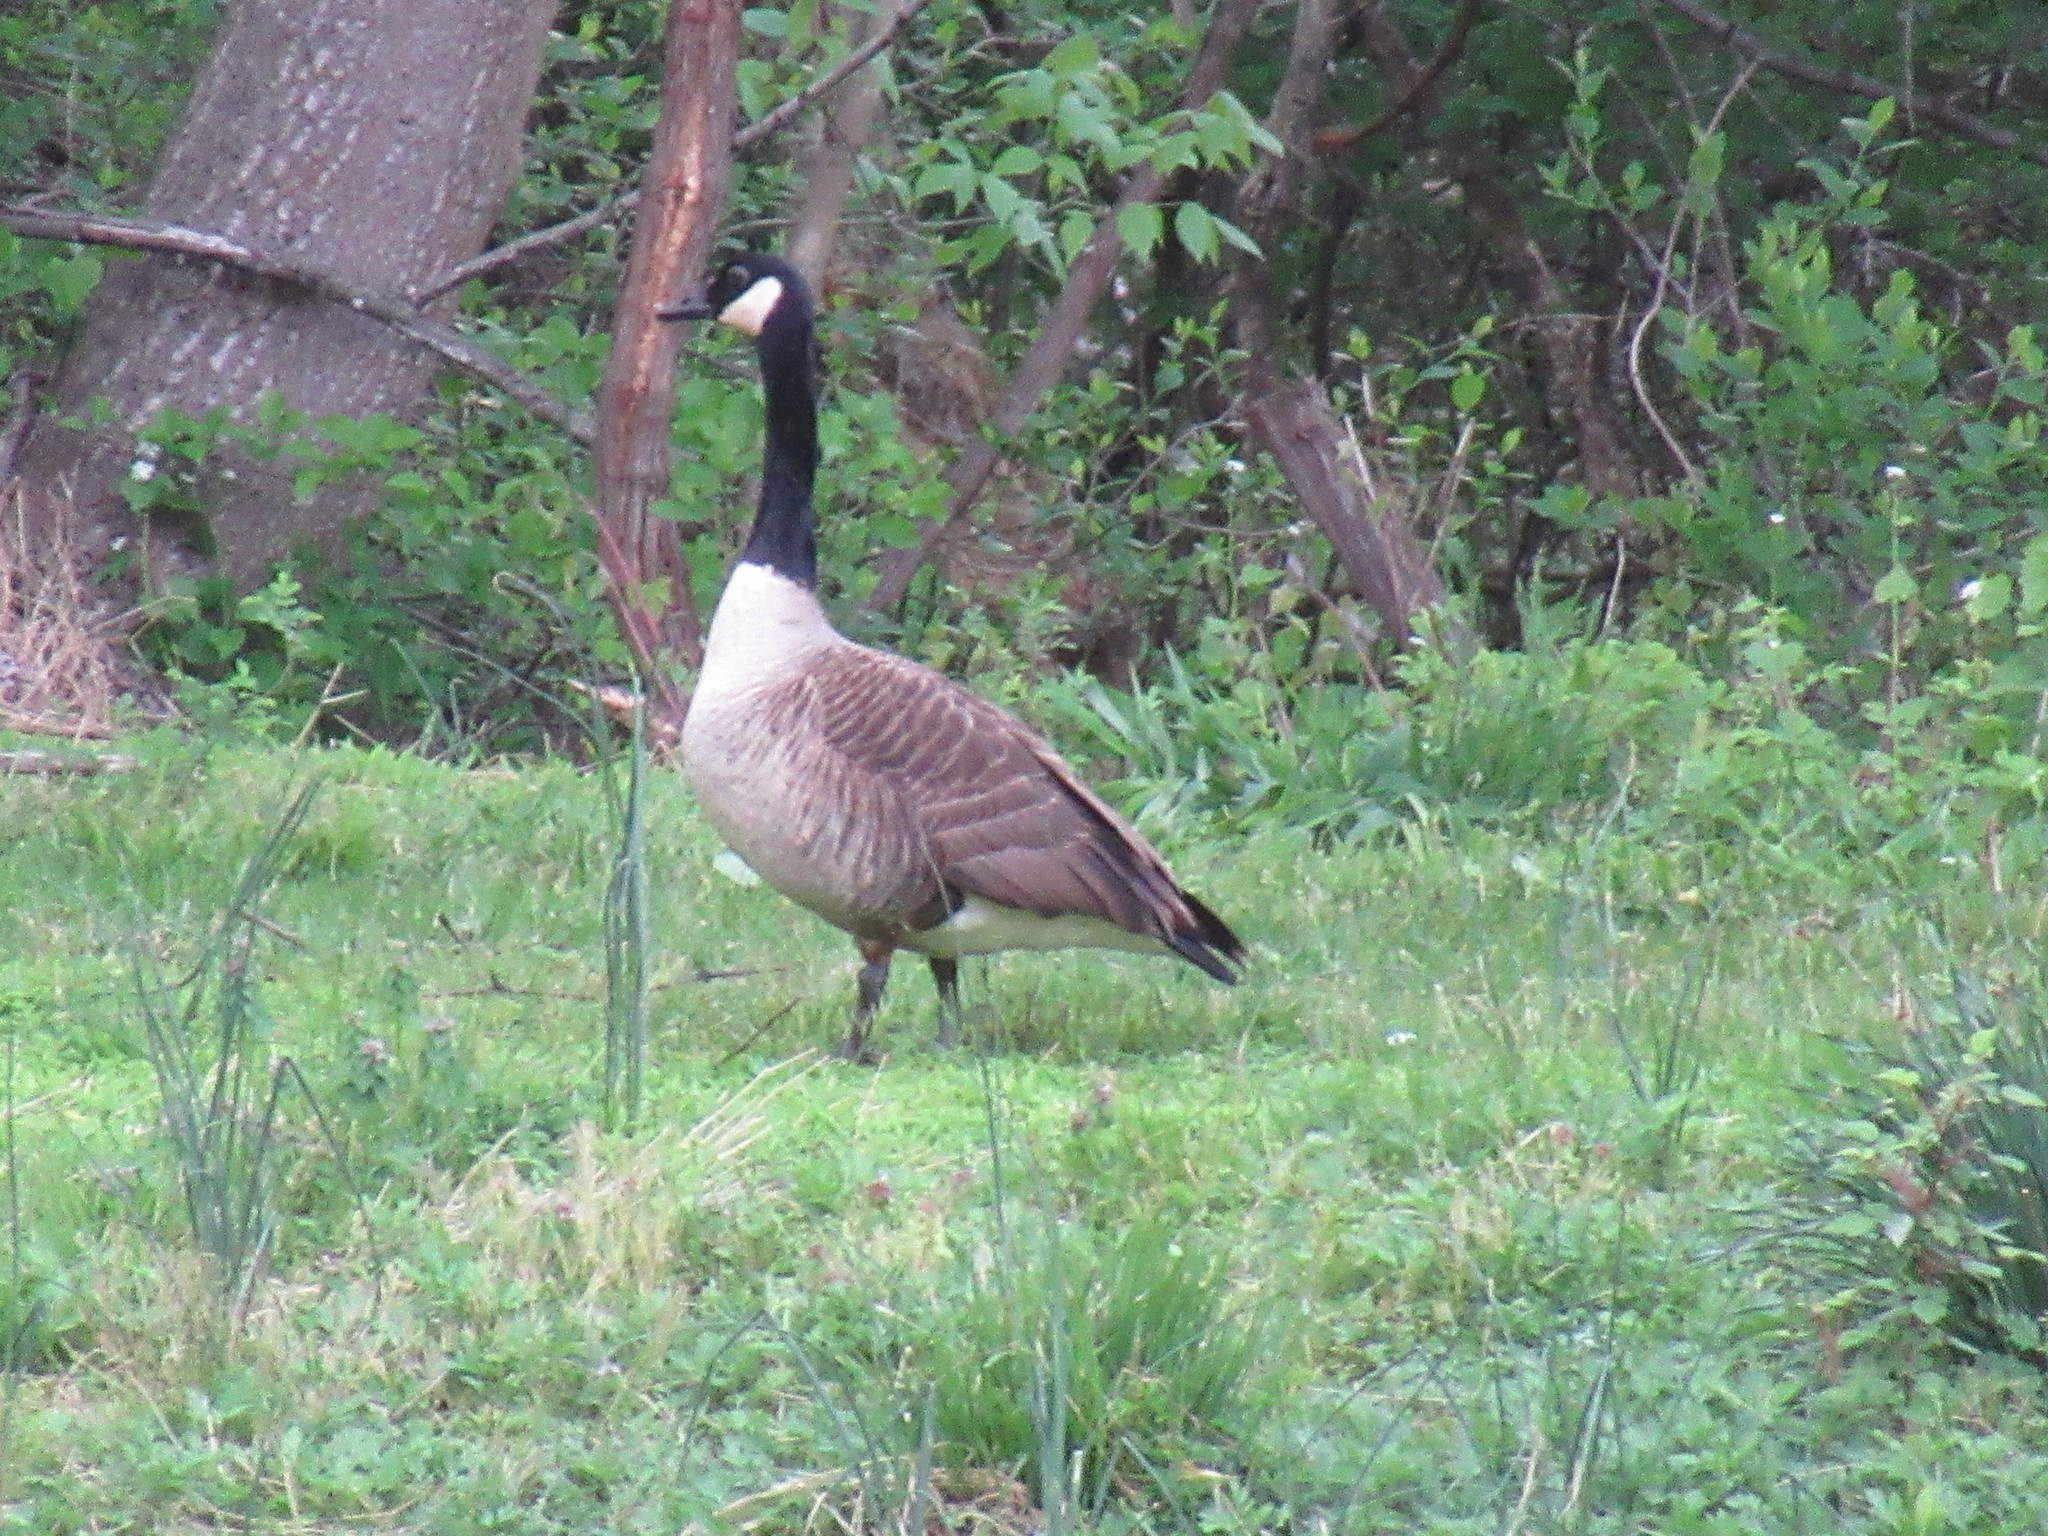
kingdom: Animalia
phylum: Chordata
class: Aves
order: Anseriformes
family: Anatidae
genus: Branta
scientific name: Branta canadensis
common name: Canada goose
